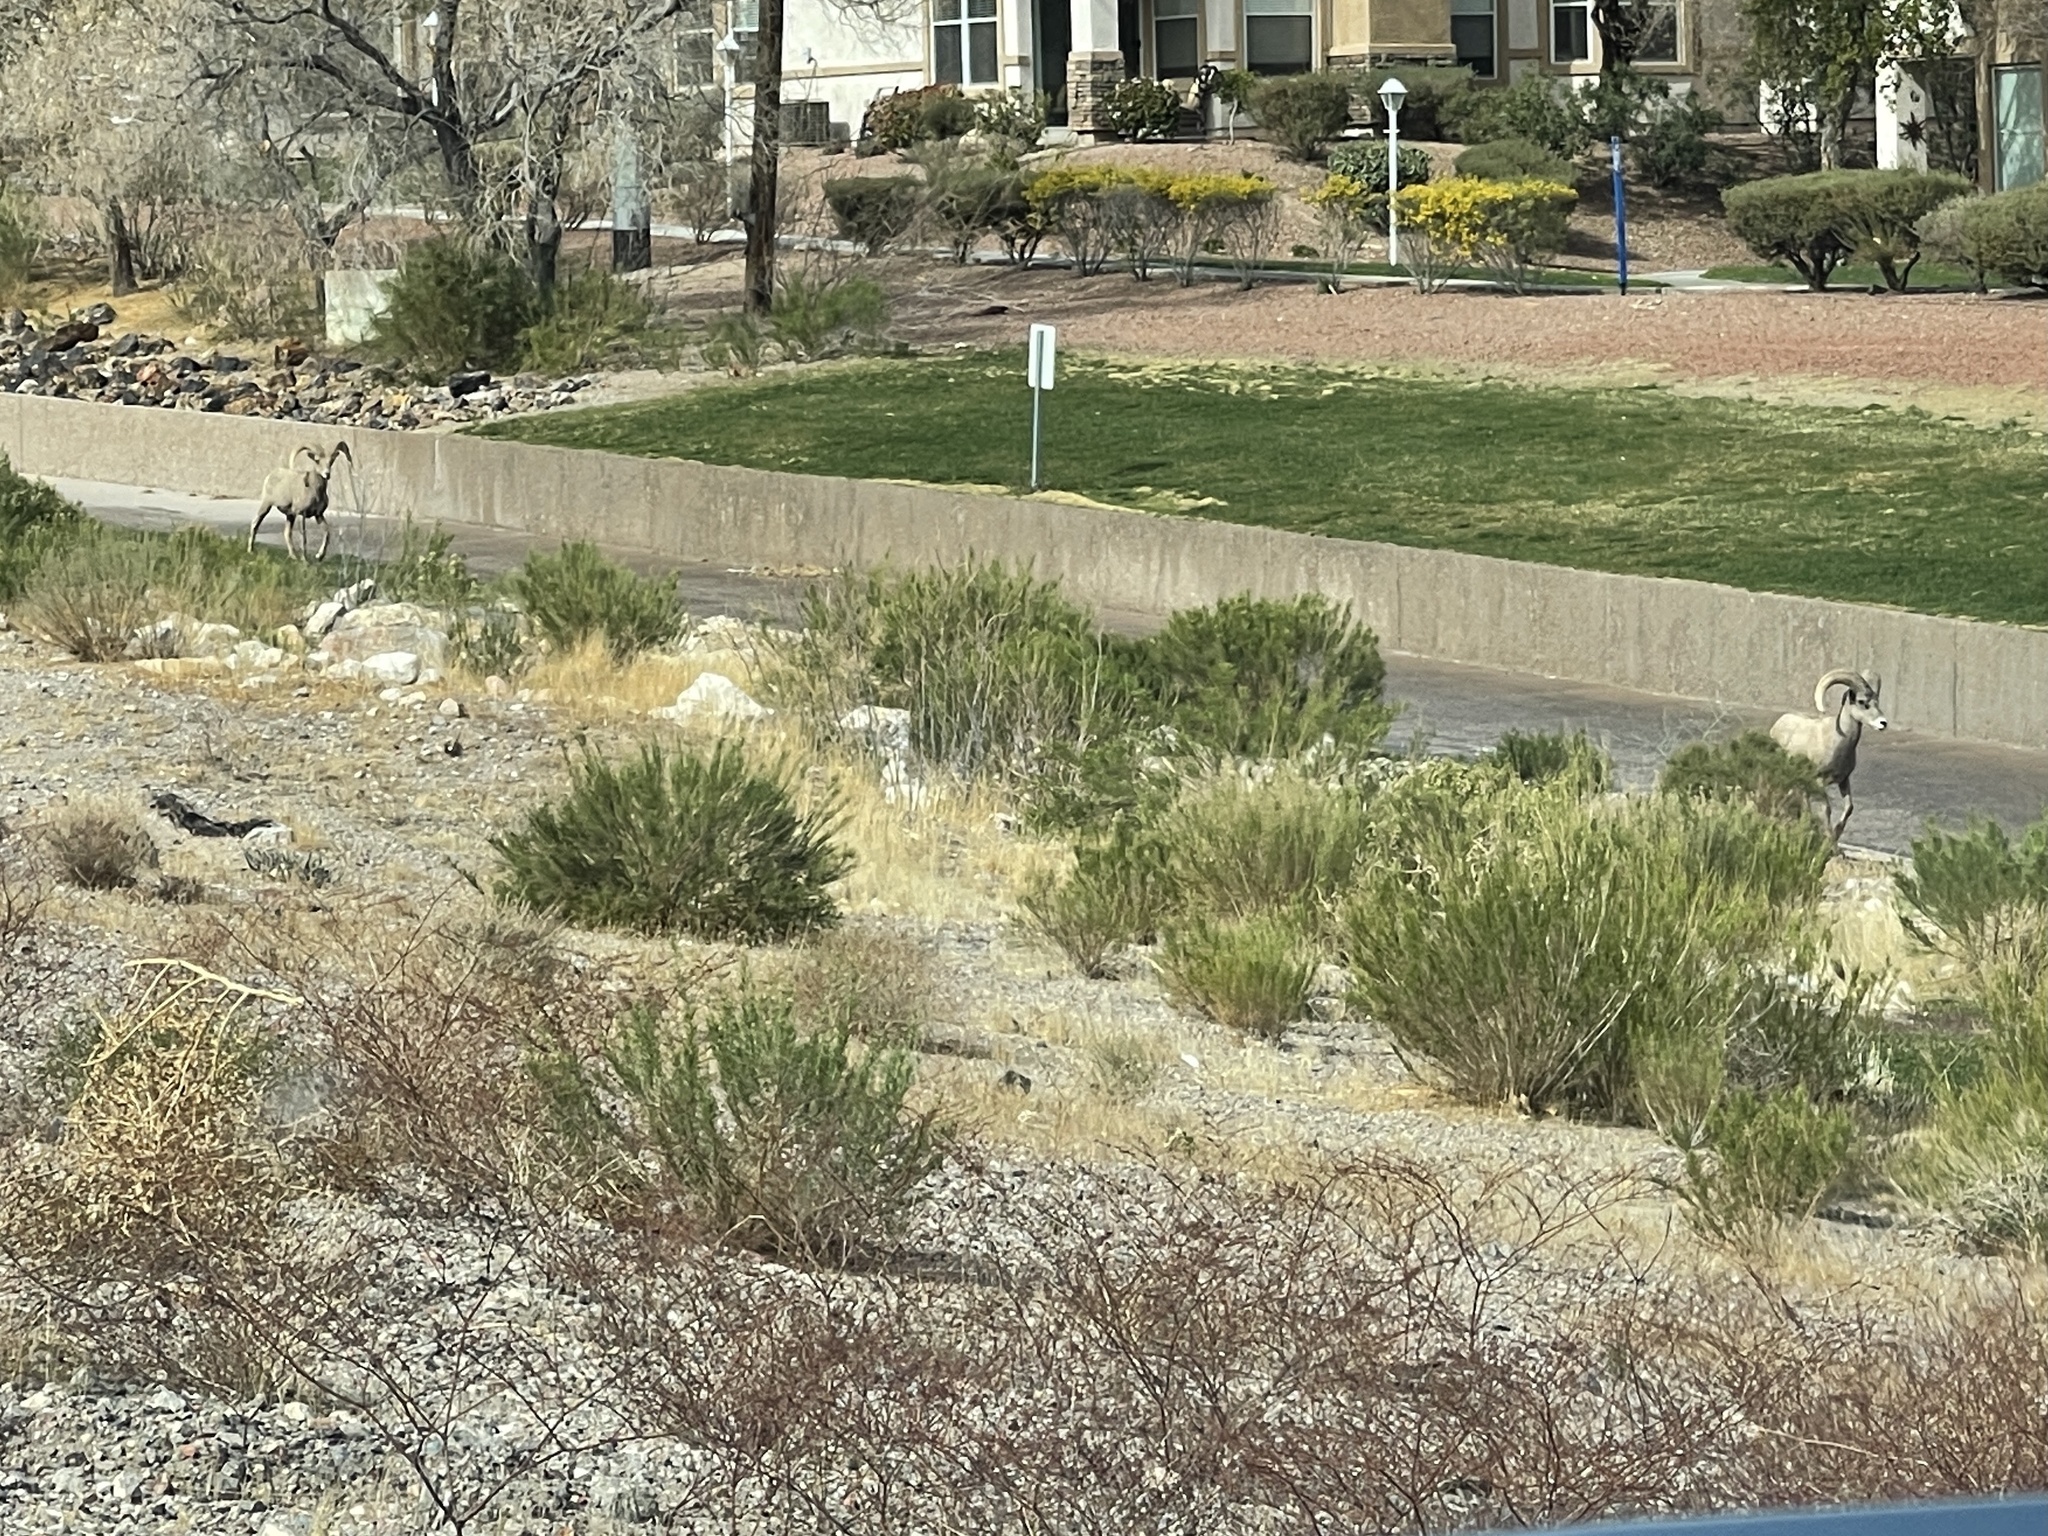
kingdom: Animalia
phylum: Chordata
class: Mammalia
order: Artiodactyla
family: Bovidae
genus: Ovis
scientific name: Ovis canadensis
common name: Bighorn sheep
